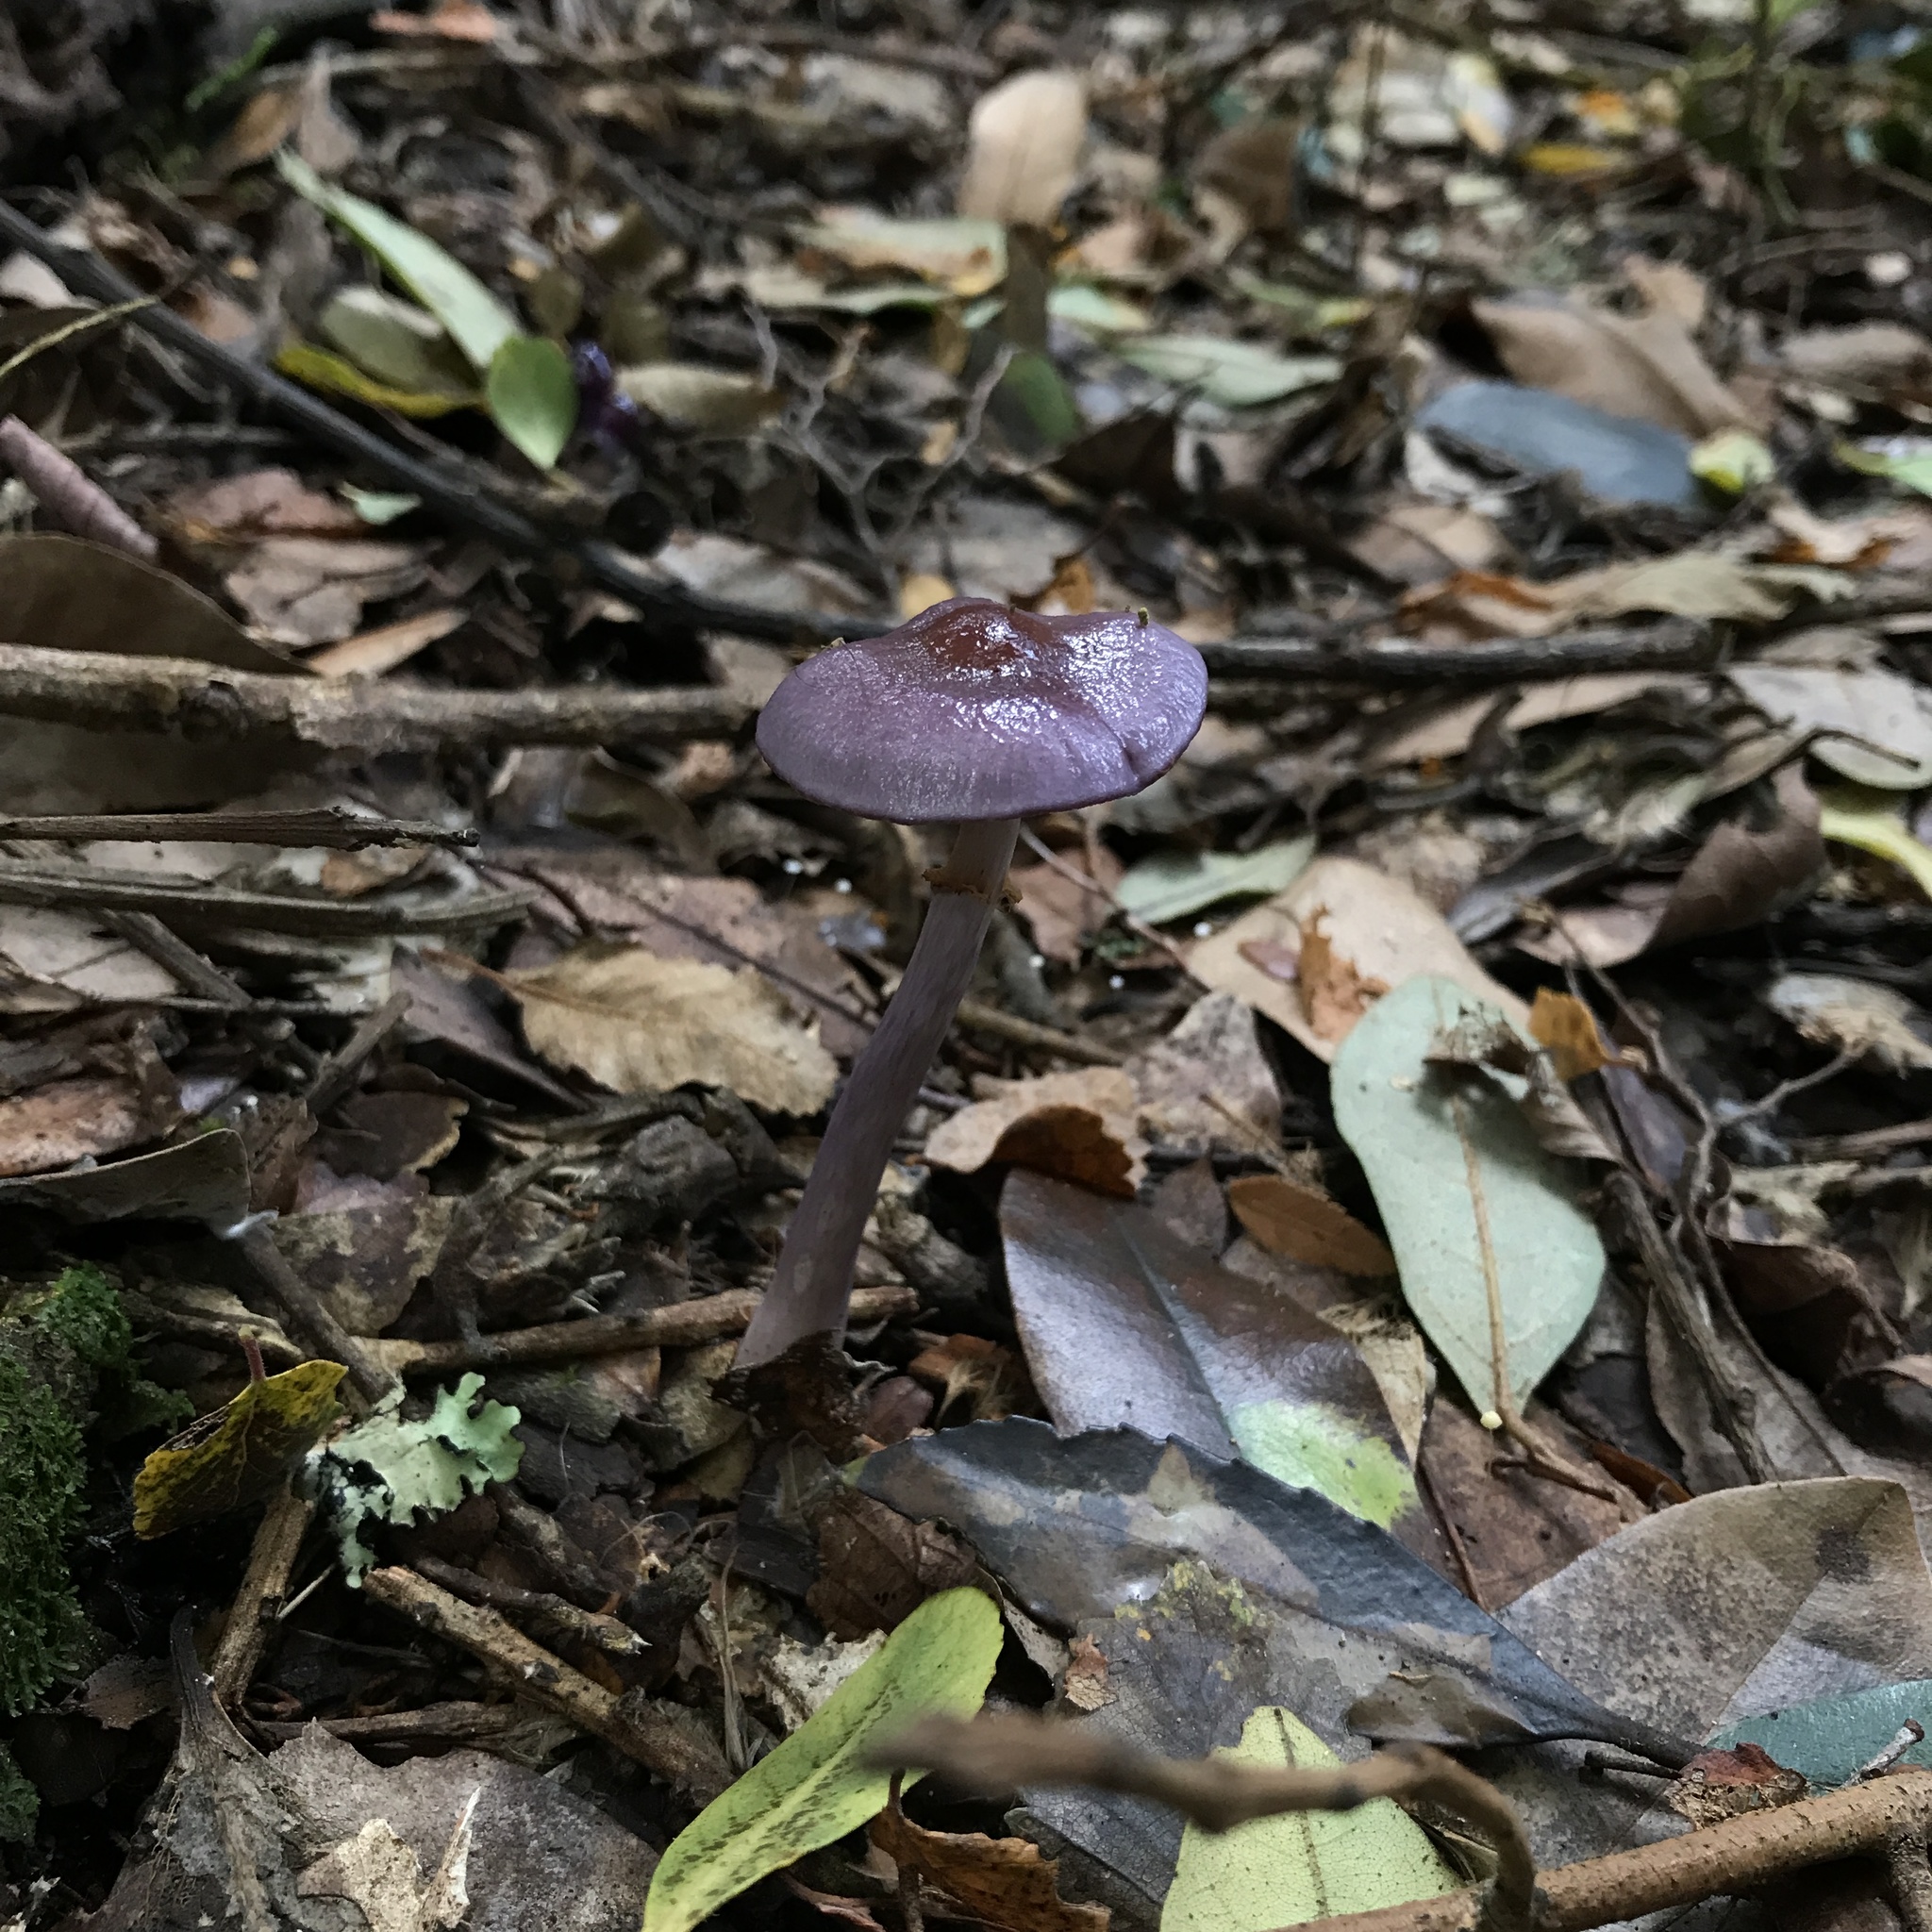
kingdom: Fungi
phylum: Basidiomycota
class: Agaricomycetes
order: Agaricales
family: Cortinariaceae
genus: Cortinarius
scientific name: Cortinarius magellanicus
